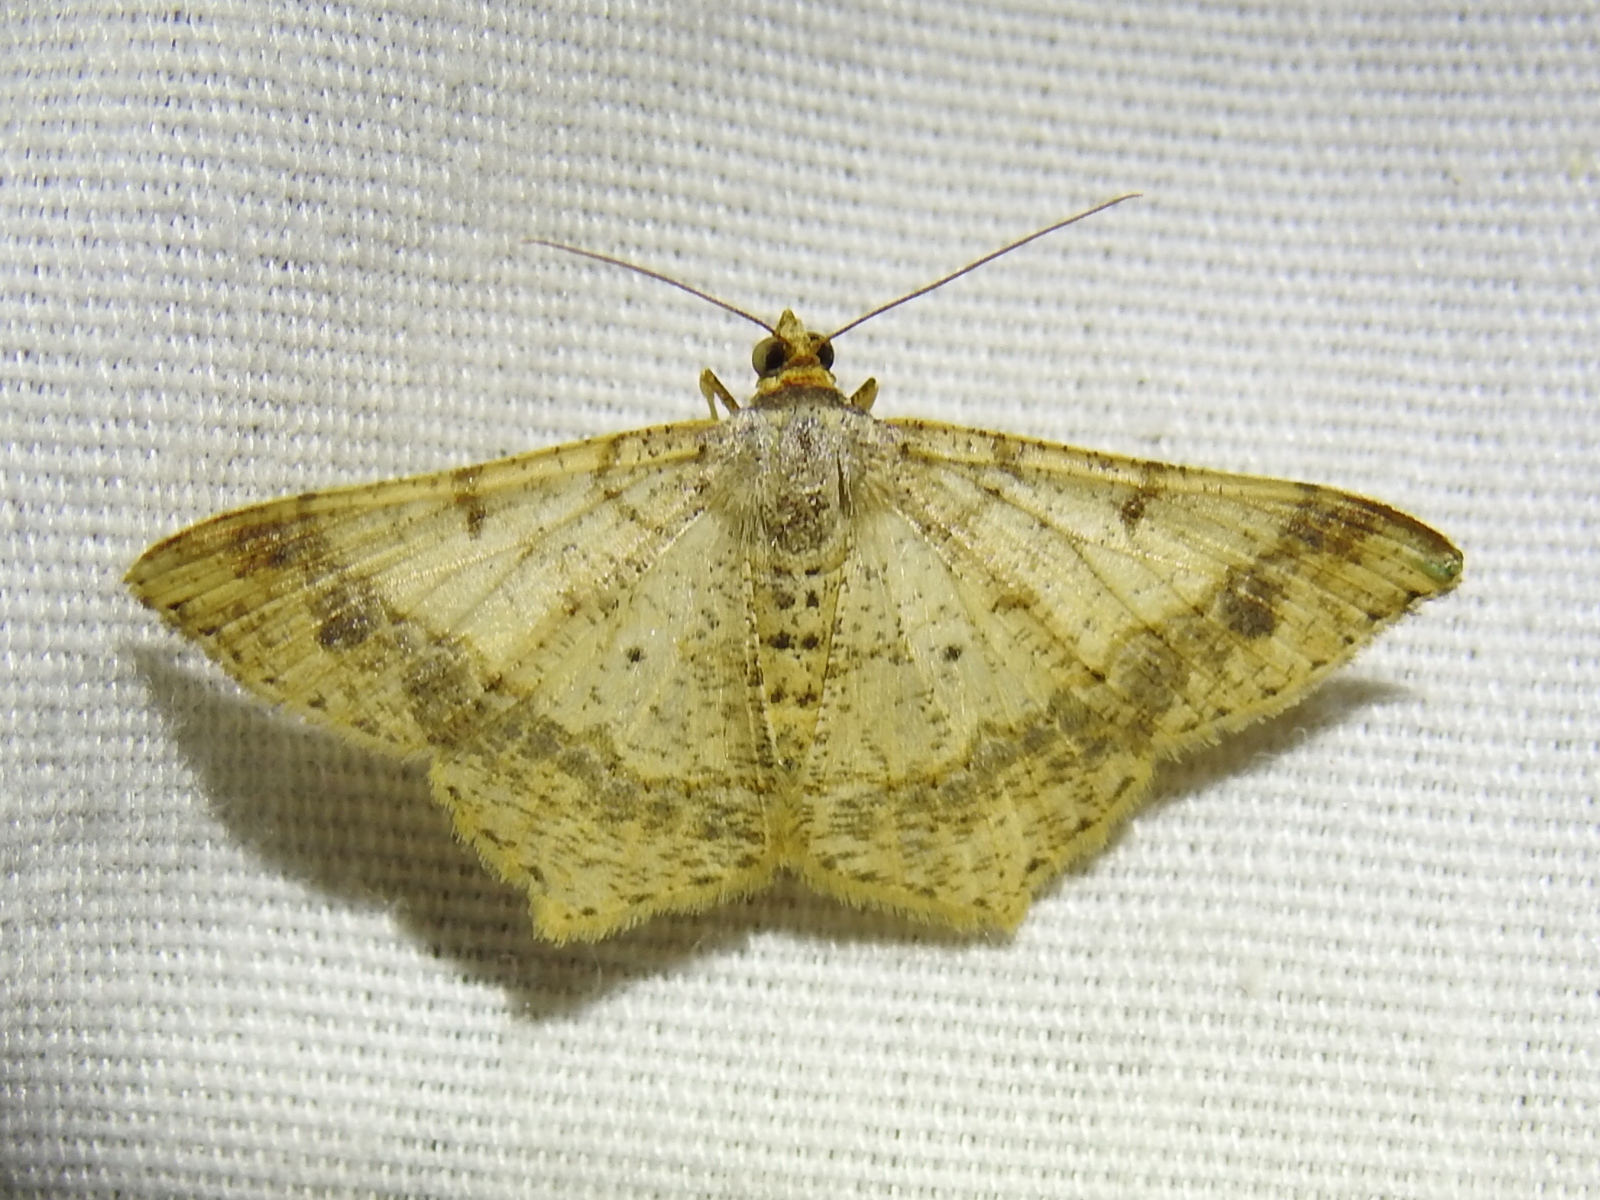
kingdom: Animalia
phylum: Arthropoda
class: Insecta
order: Lepidoptera
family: Geometridae
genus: Macaria
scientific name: Macaria abydata
